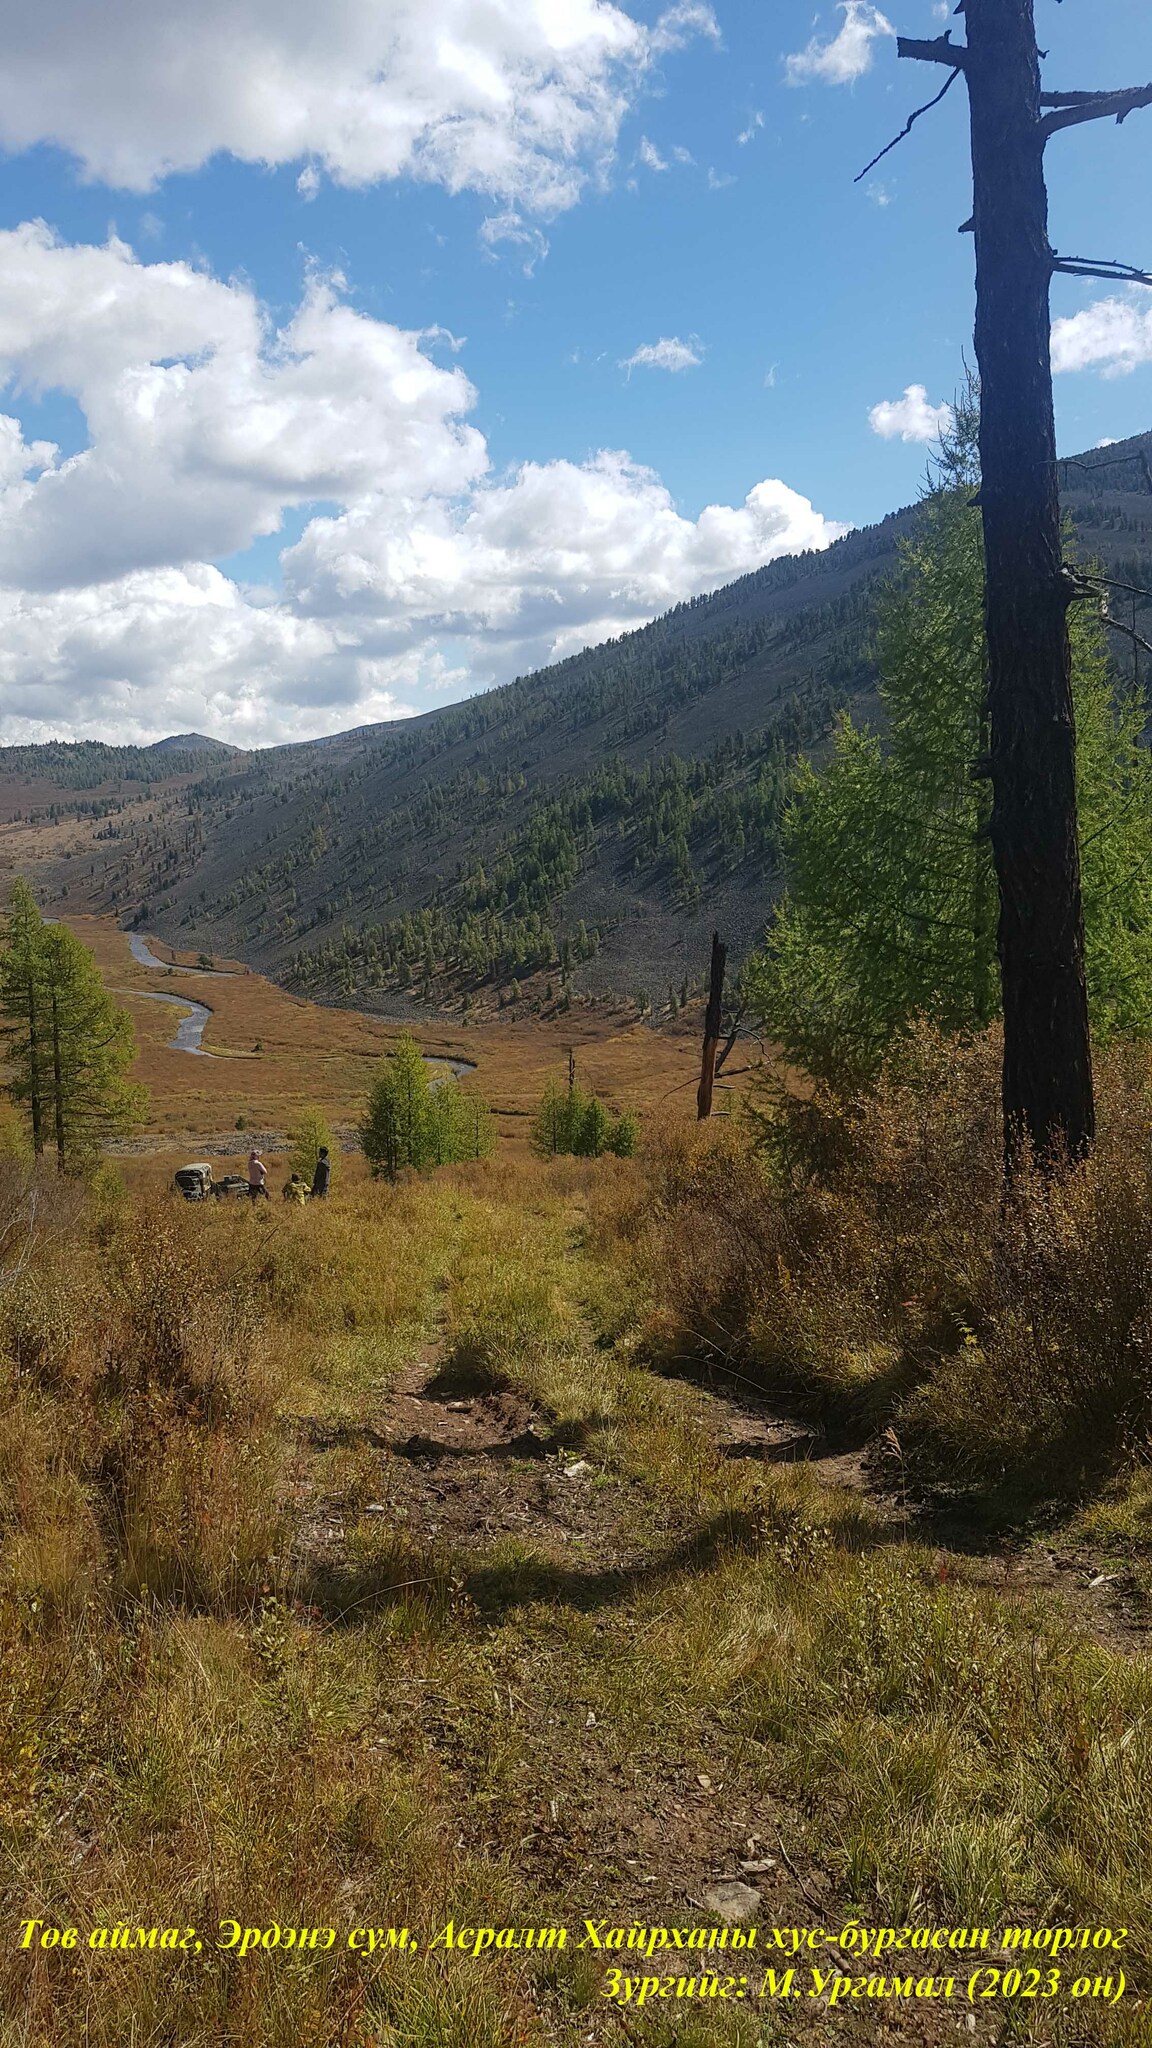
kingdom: Plantae
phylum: Tracheophyta
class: Pinopsida
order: Pinales
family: Pinaceae
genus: Larix
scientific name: Larix sibirica
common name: Siberian larch
